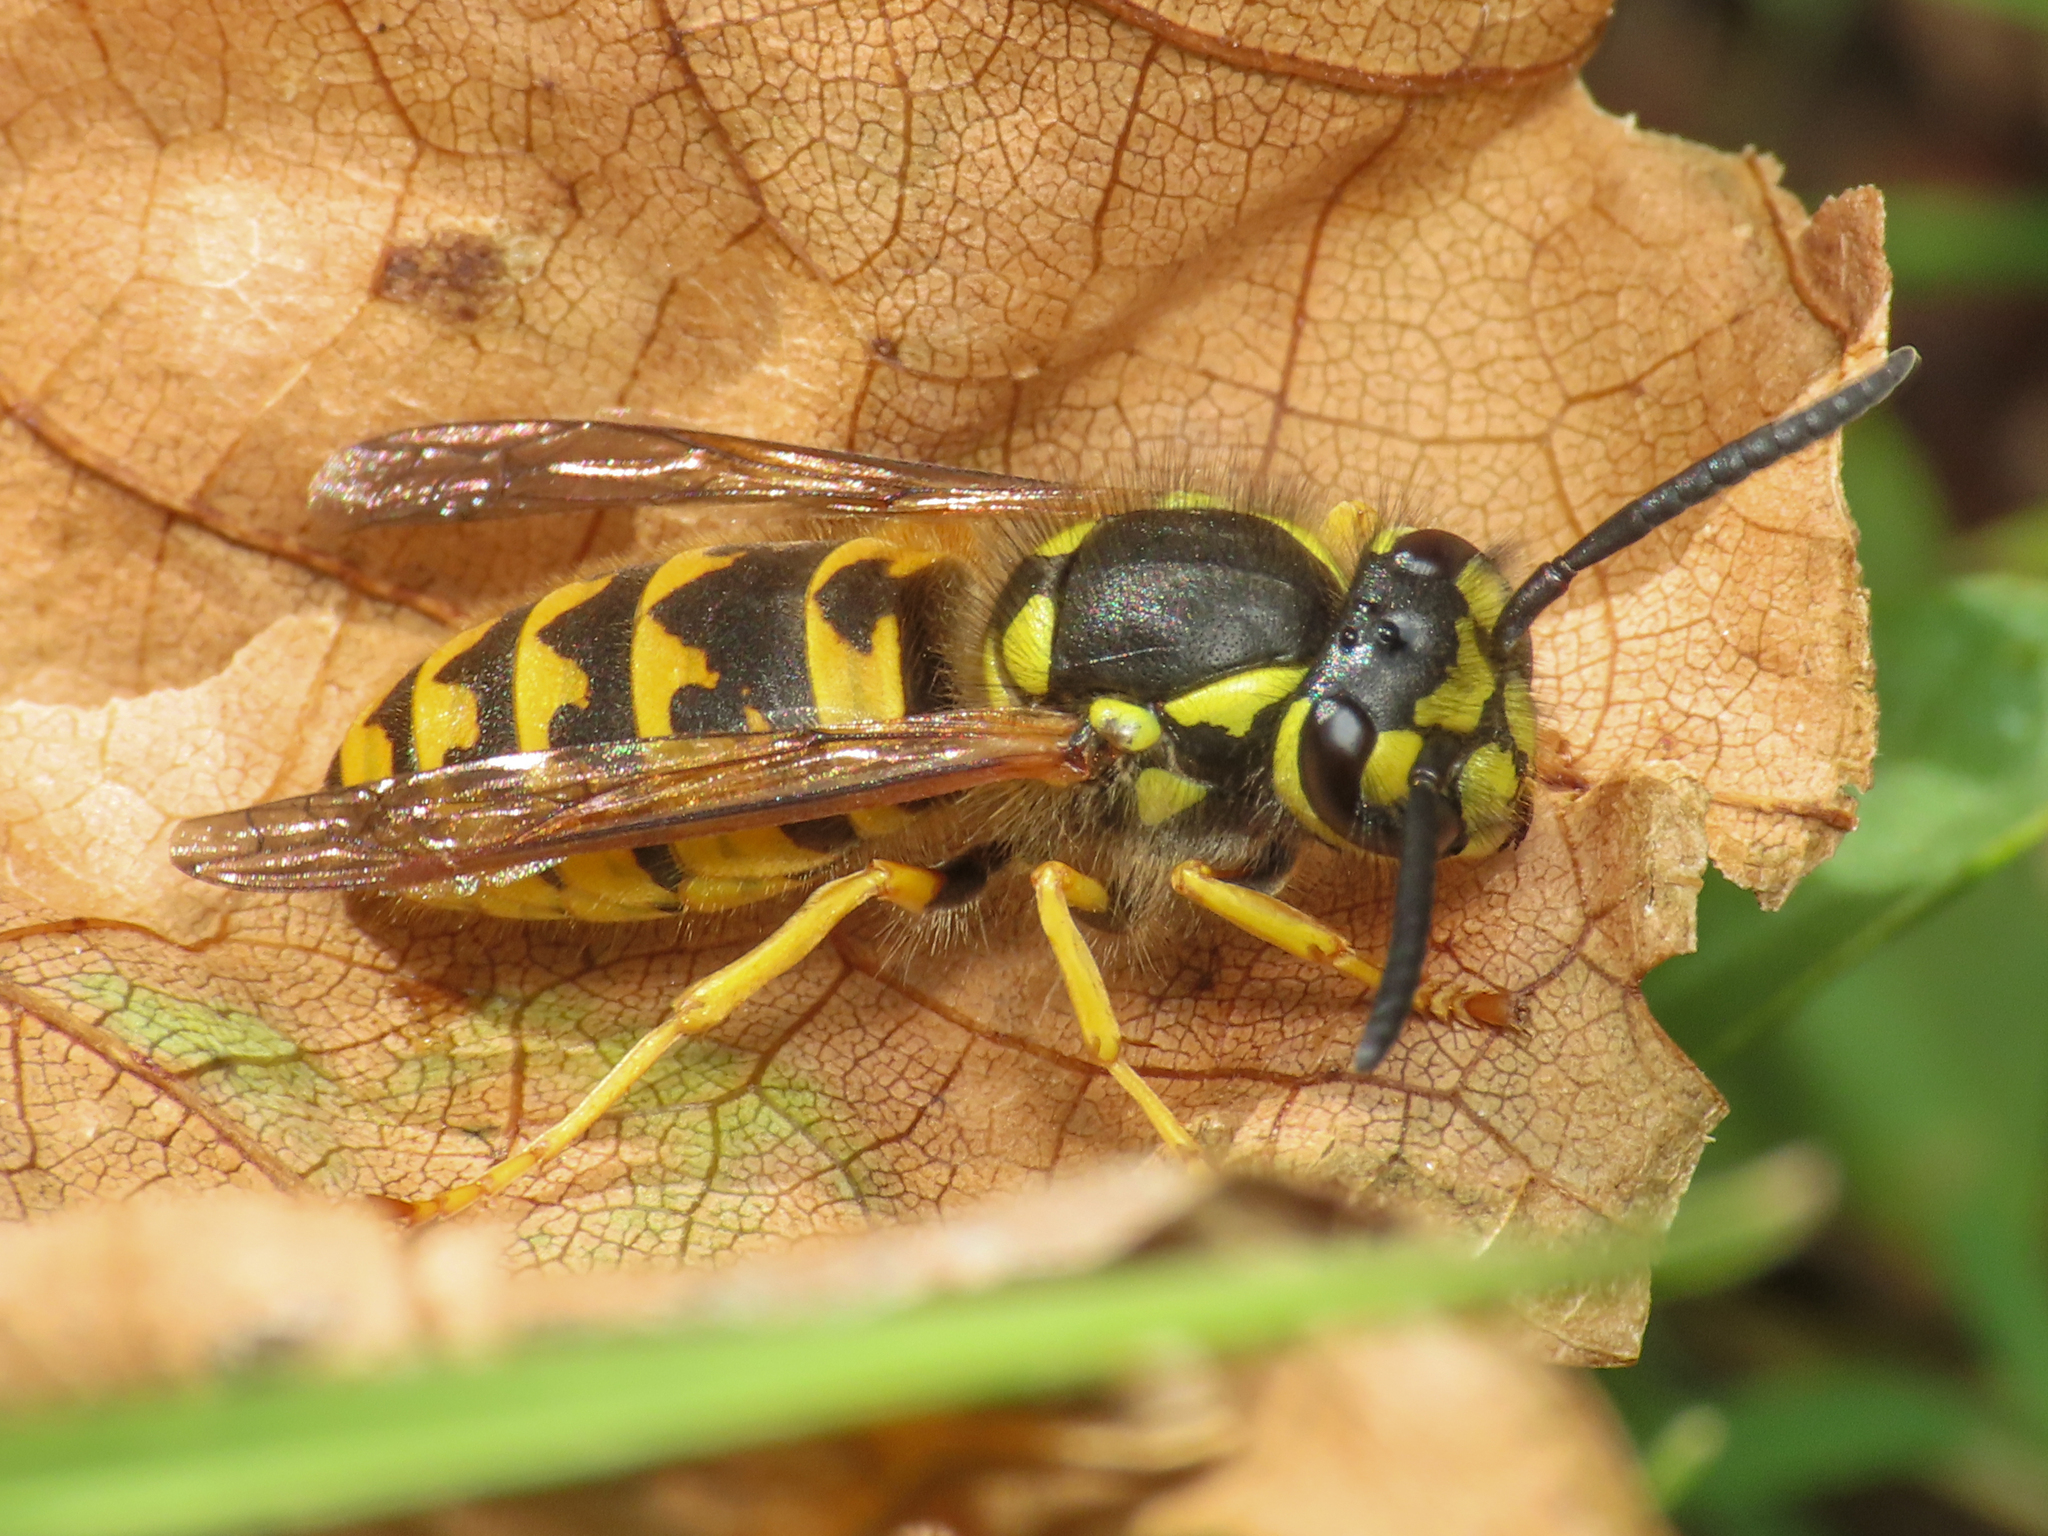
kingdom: Animalia
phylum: Arthropoda
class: Insecta
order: Hymenoptera
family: Vespidae
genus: Vespula
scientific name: Vespula germanica
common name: German wasp
